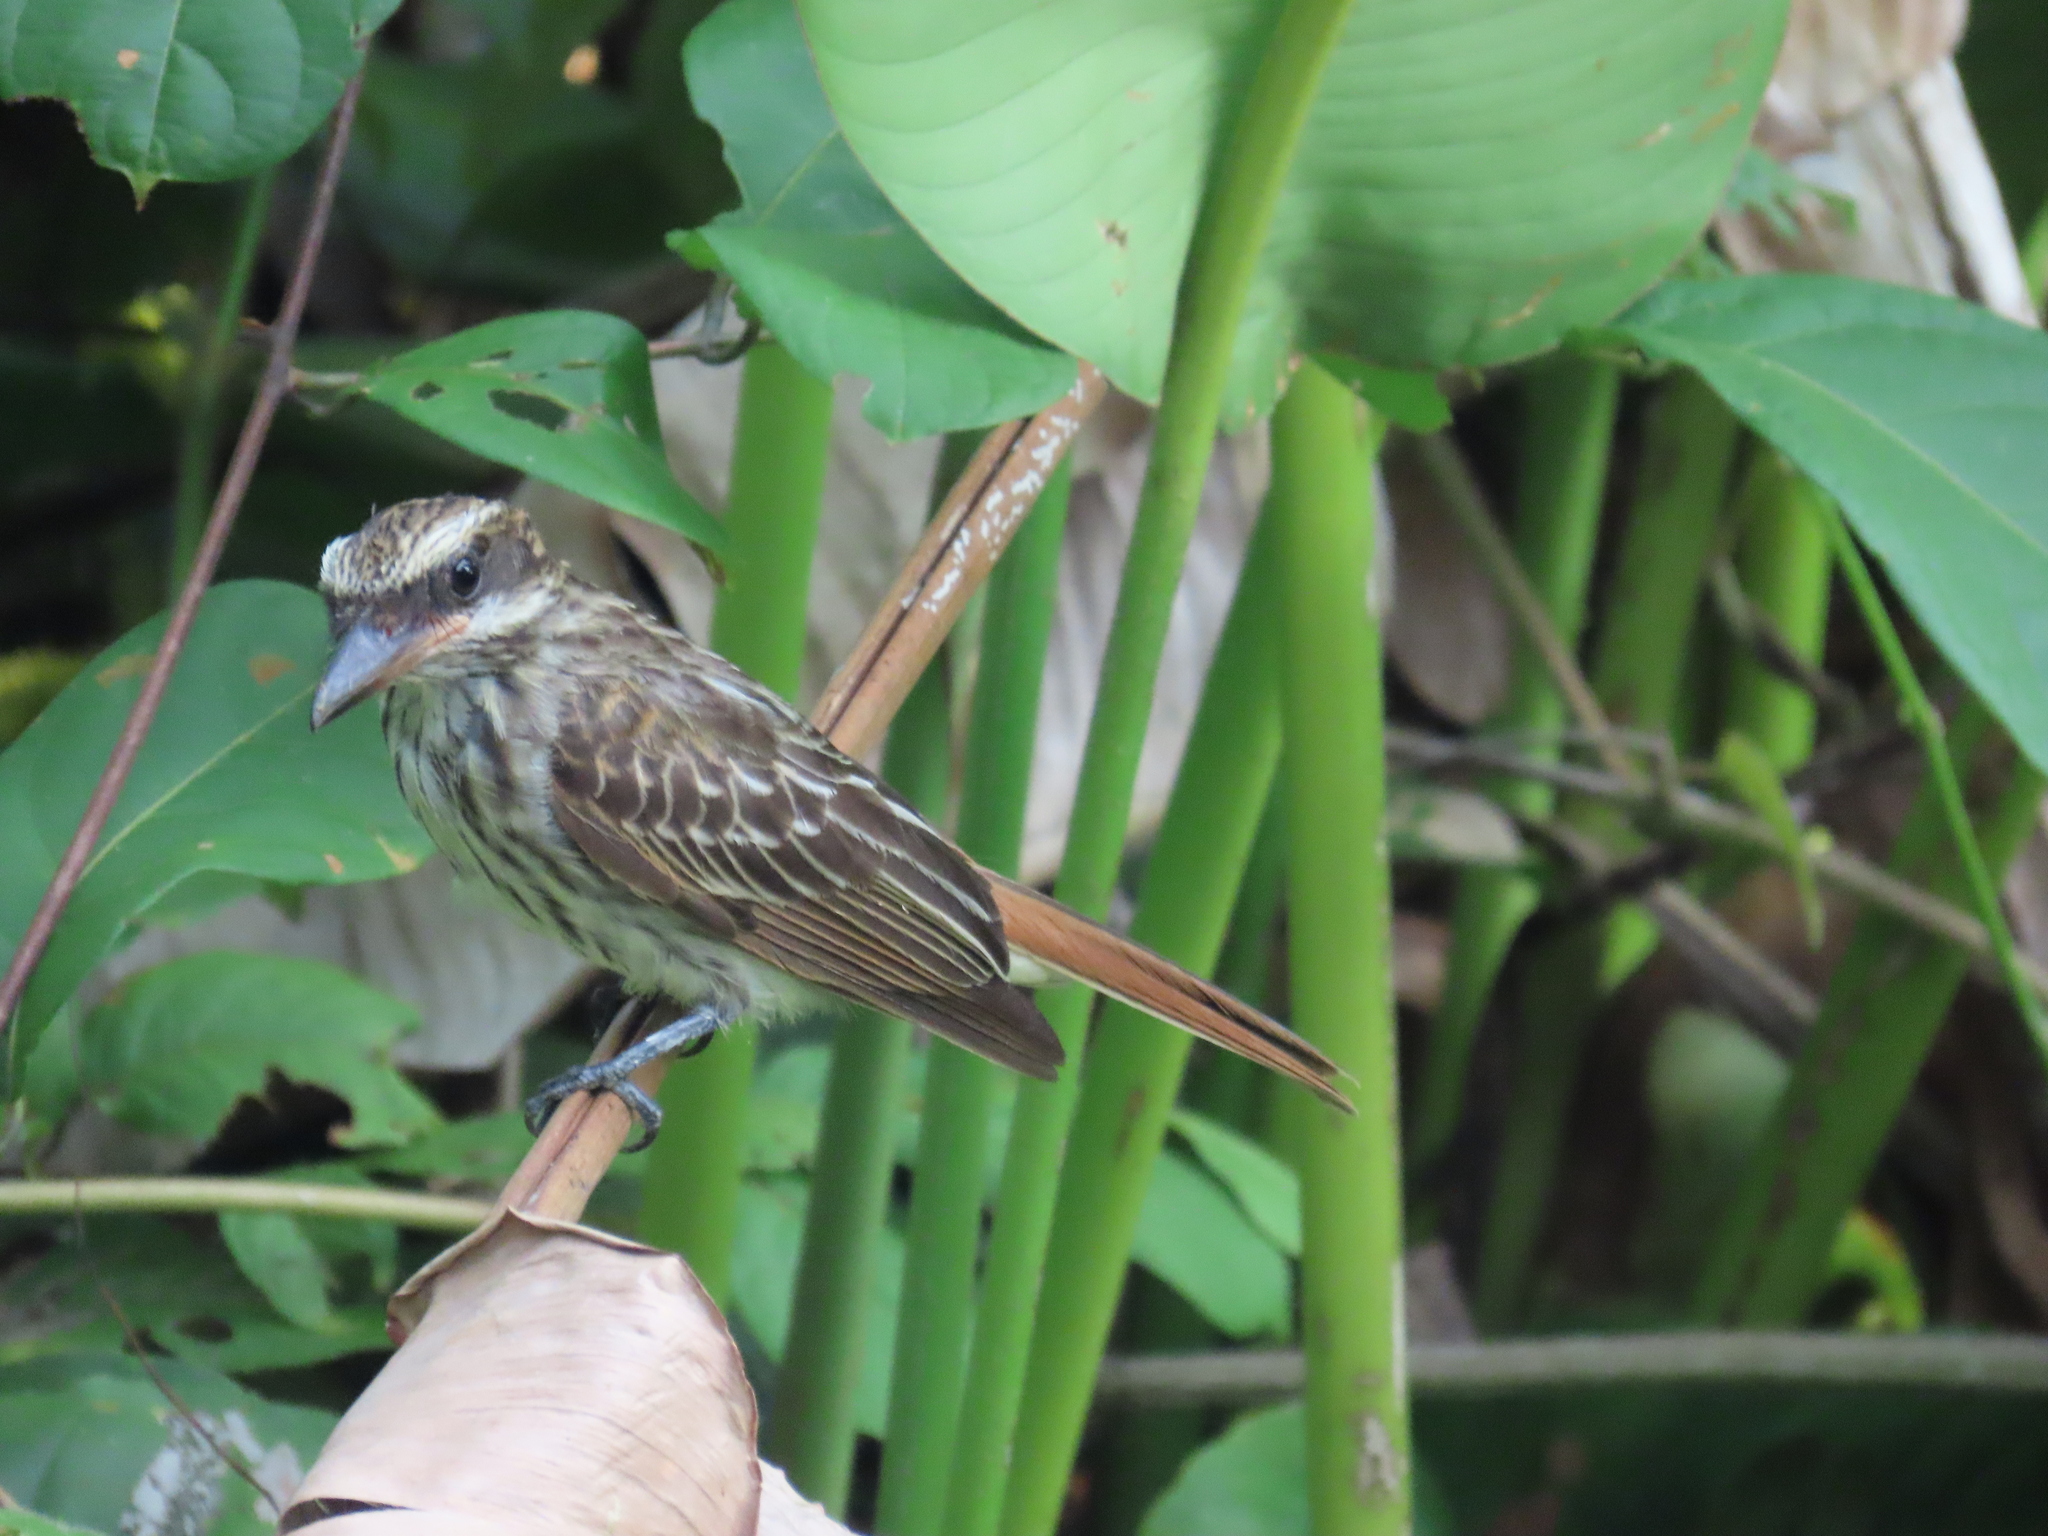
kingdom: Animalia
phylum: Chordata
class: Aves
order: Passeriformes
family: Tyrannidae
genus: Myiodynastes
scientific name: Myiodynastes maculatus
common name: Streaked flycatcher
